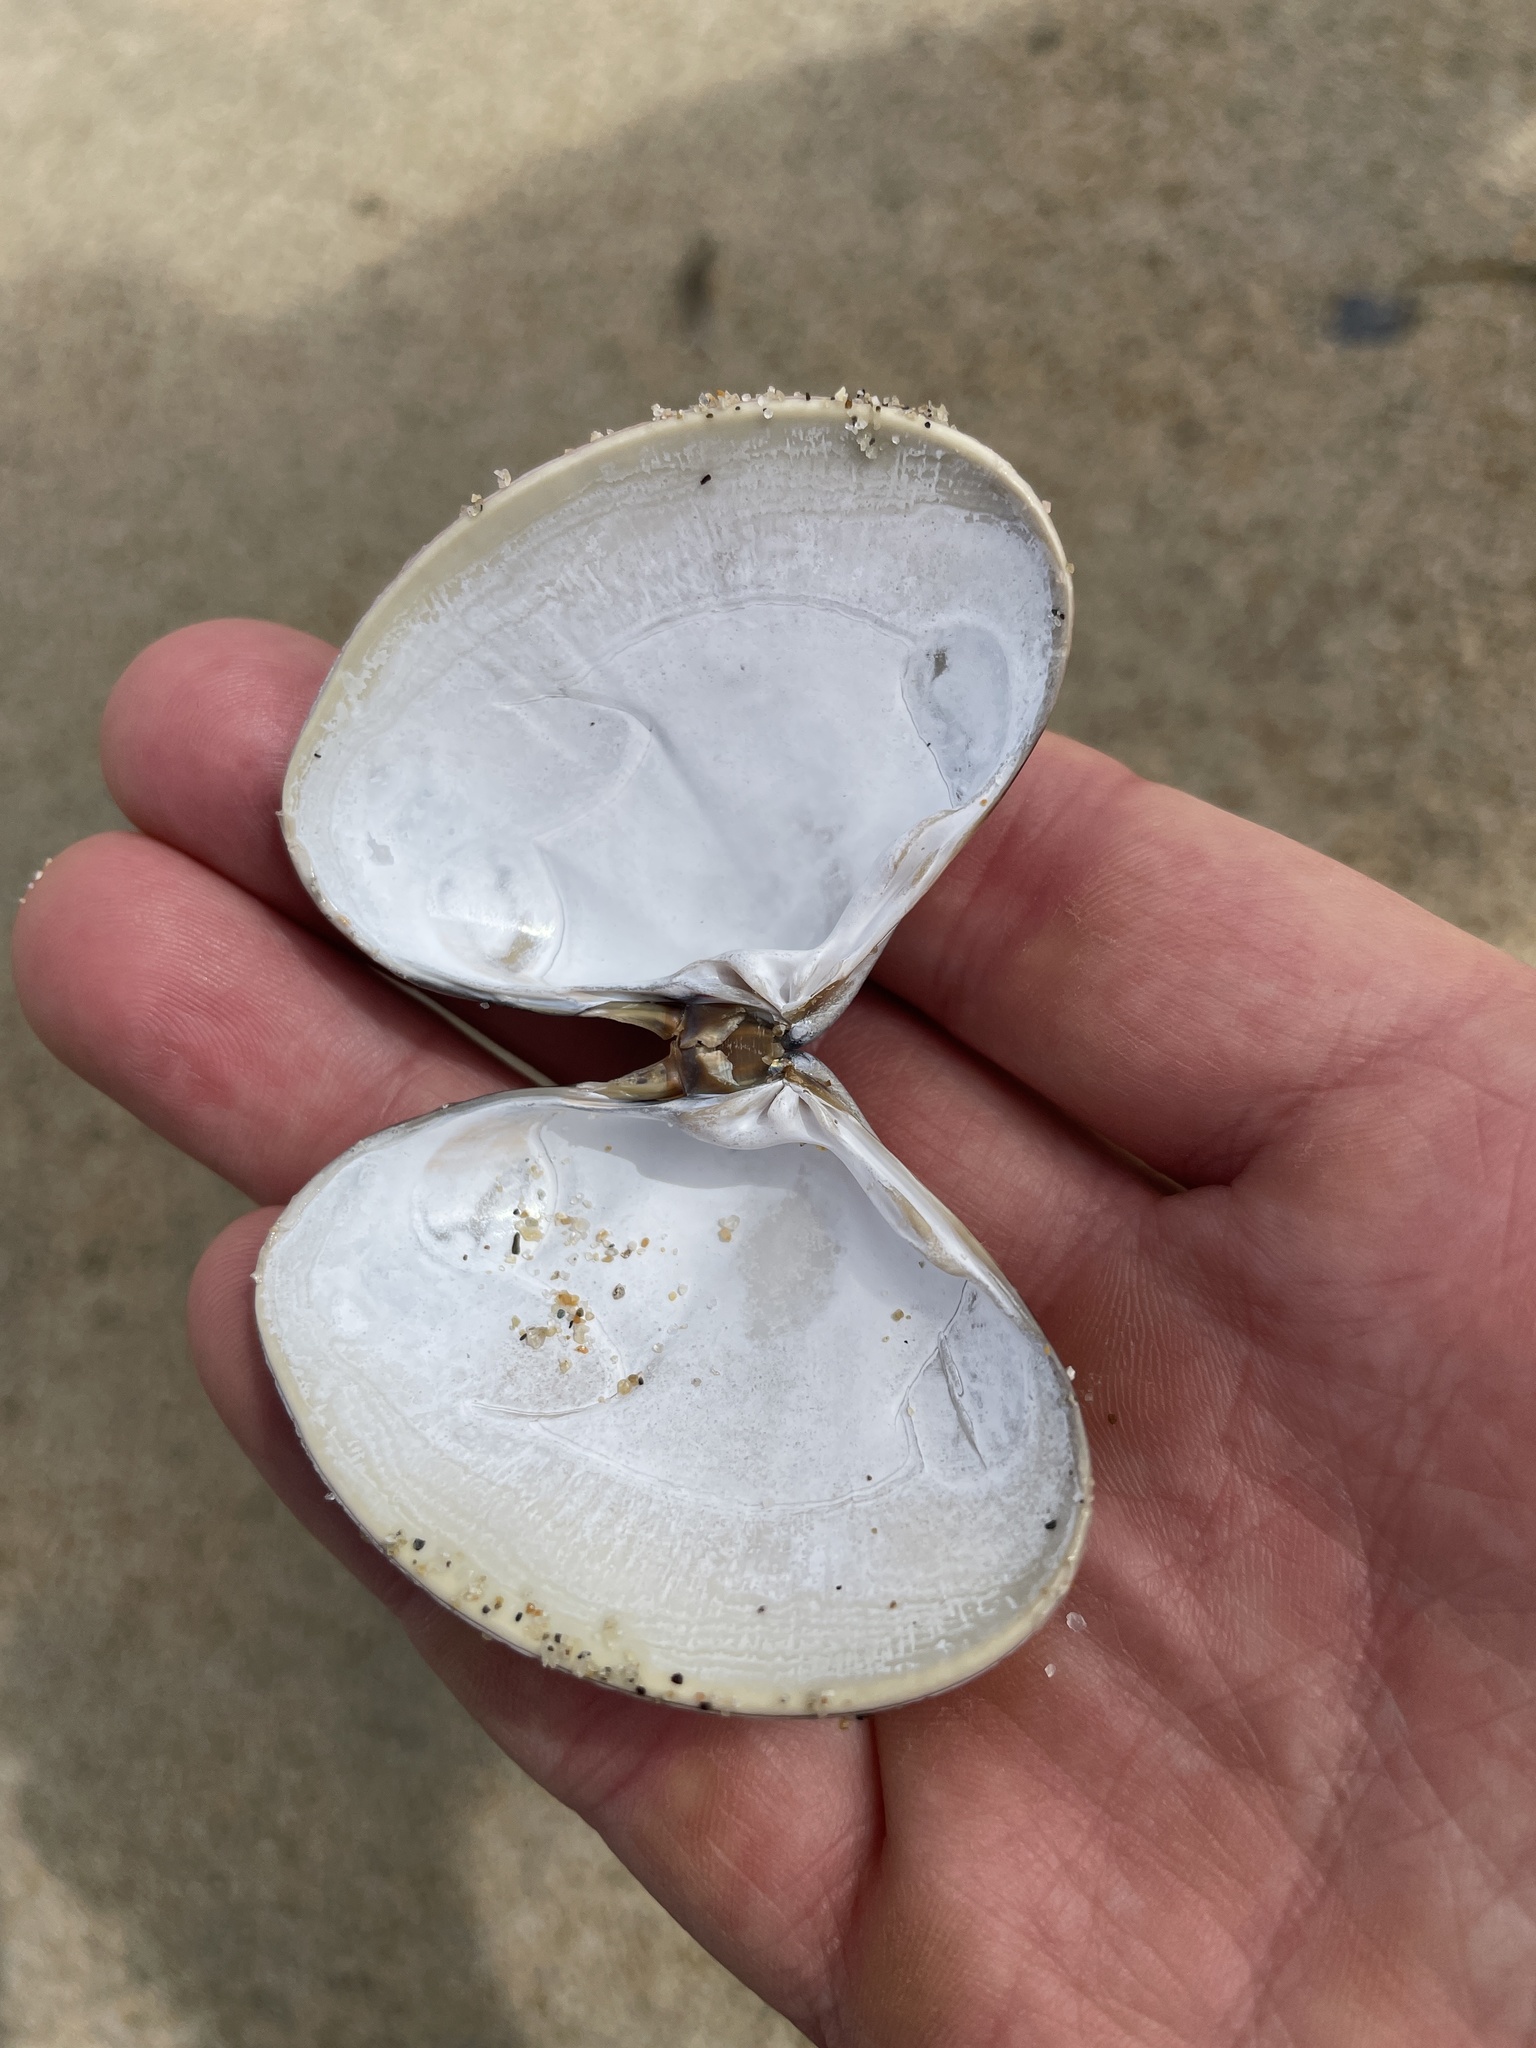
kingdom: Animalia
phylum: Mollusca
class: Bivalvia
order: Venerida
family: Veneridae
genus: Tivela
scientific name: Tivela stultorum
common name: Pismo clam
